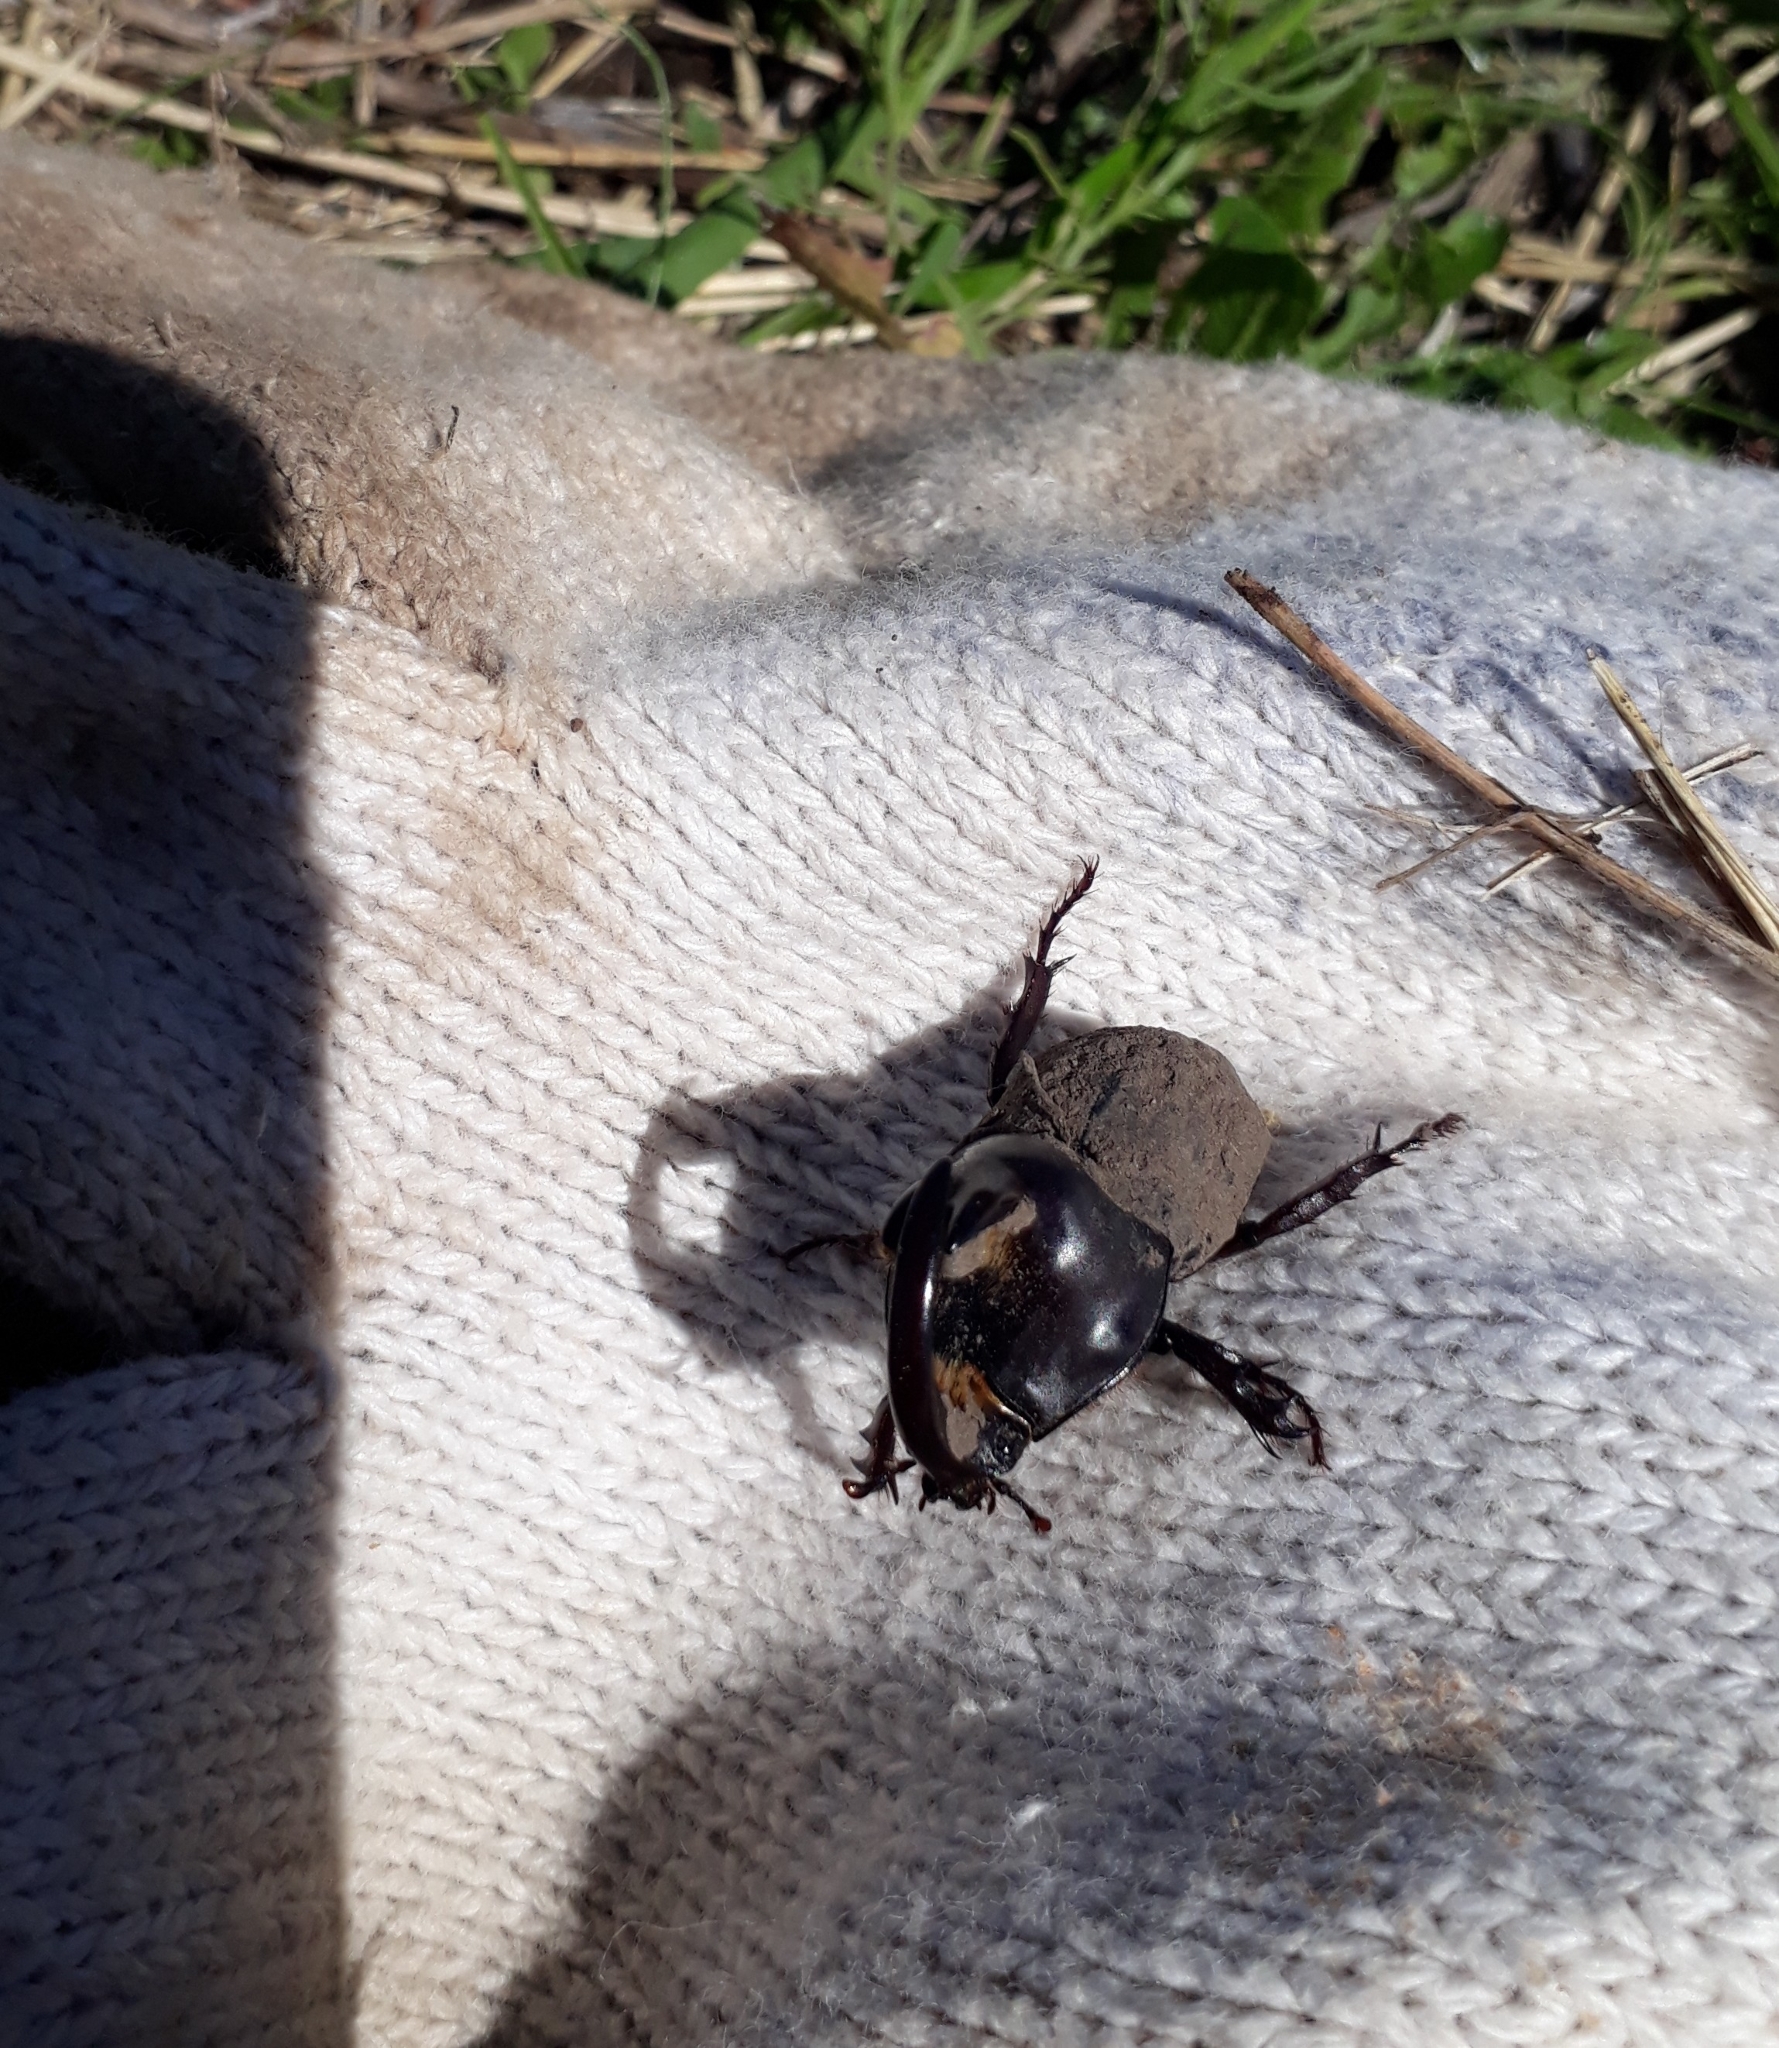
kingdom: Animalia
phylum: Arthropoda
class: Insecta
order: Coleoptera
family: Scarabaeidae
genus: Diloboderus
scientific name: Diloboderus abderus
